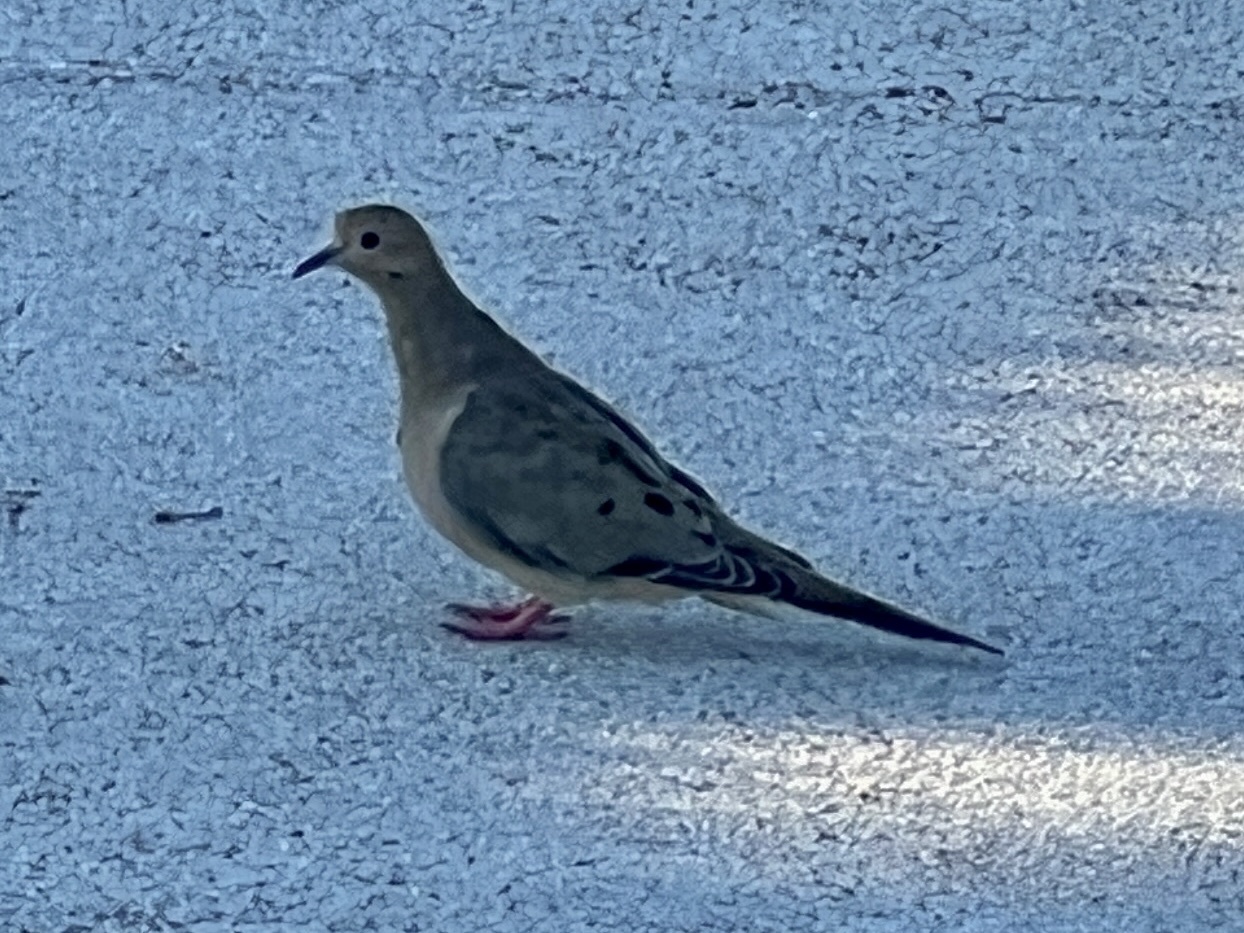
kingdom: Animalia
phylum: Chordata
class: Aves
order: Columbiformes
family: Columbidae
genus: Zenaida
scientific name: Zenaida macroura
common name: Mourning dove
